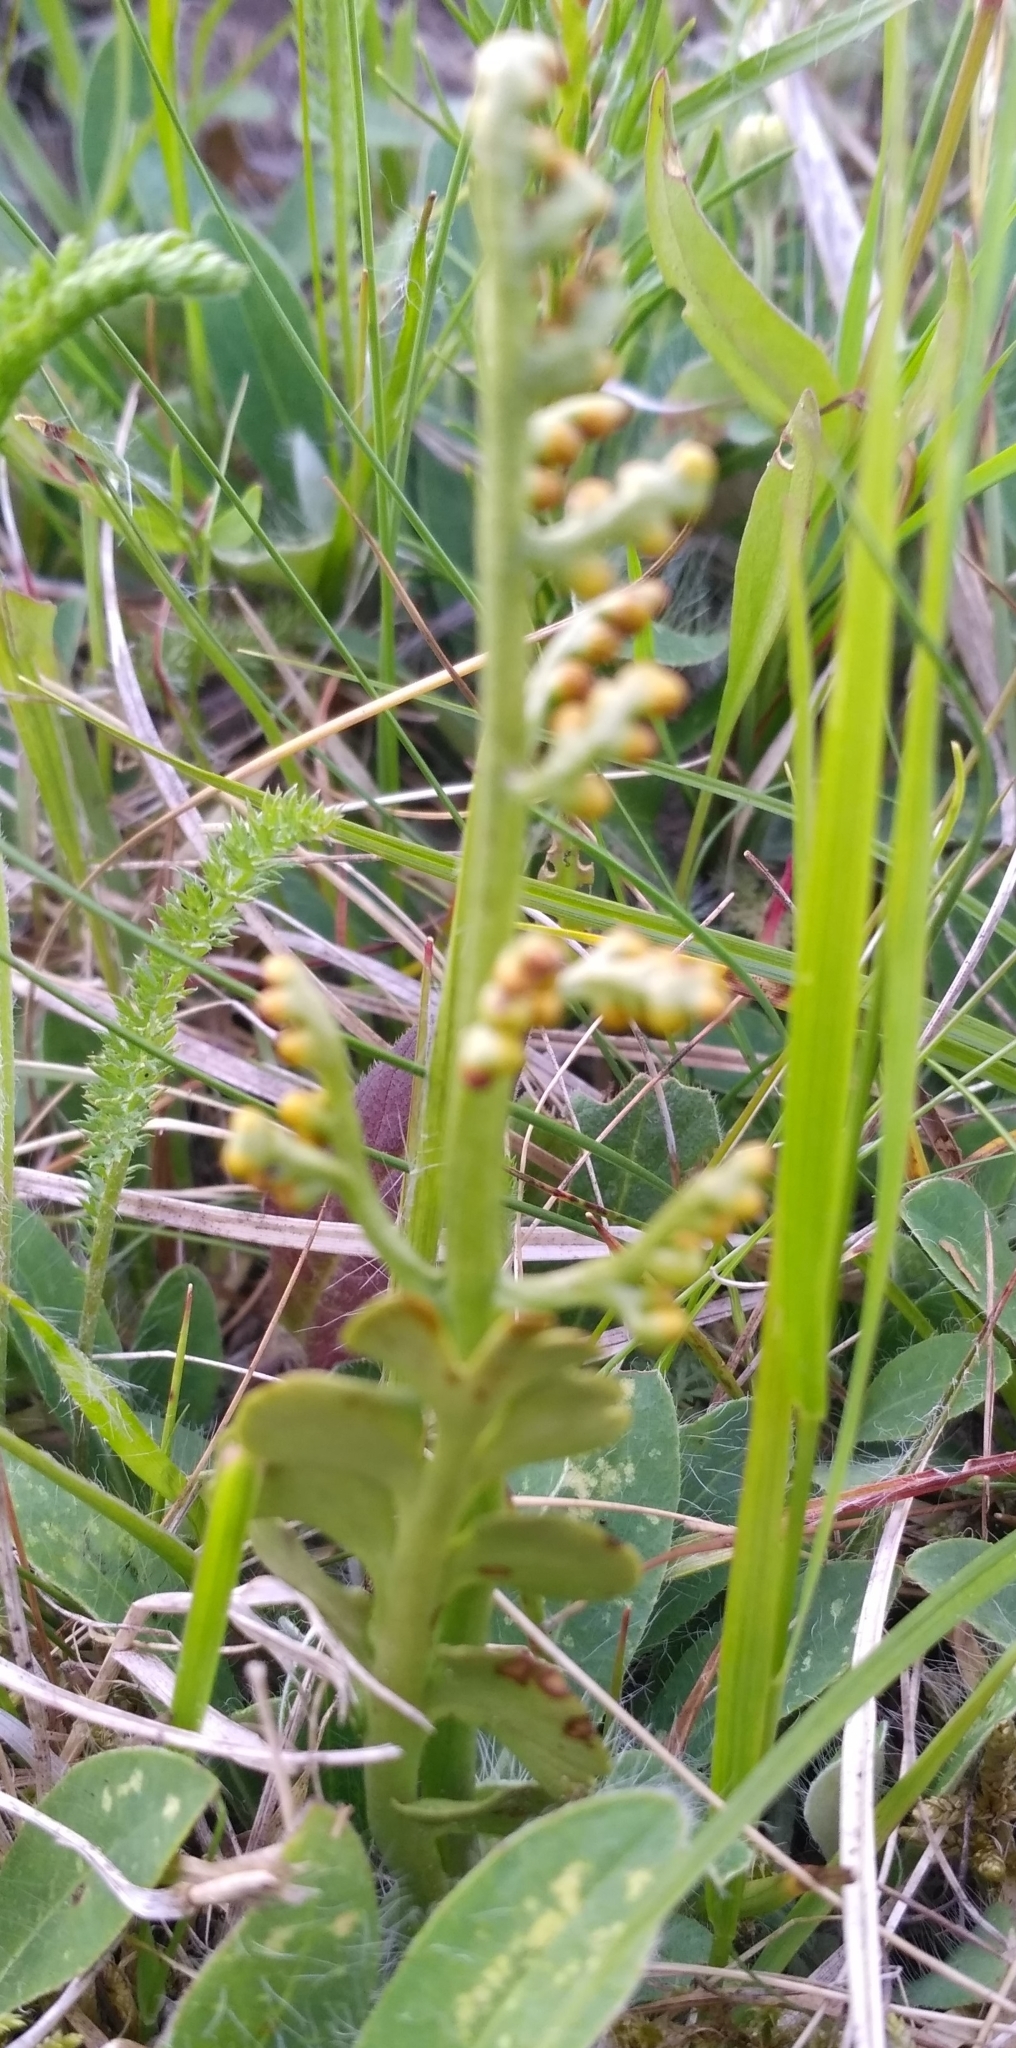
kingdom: Plantae
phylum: Tracheophyta
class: Polypodiopsida
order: Ophioglossales
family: Ophioglossaceae
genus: Botrychium
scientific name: Botrychium lunaria
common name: Moonwort
